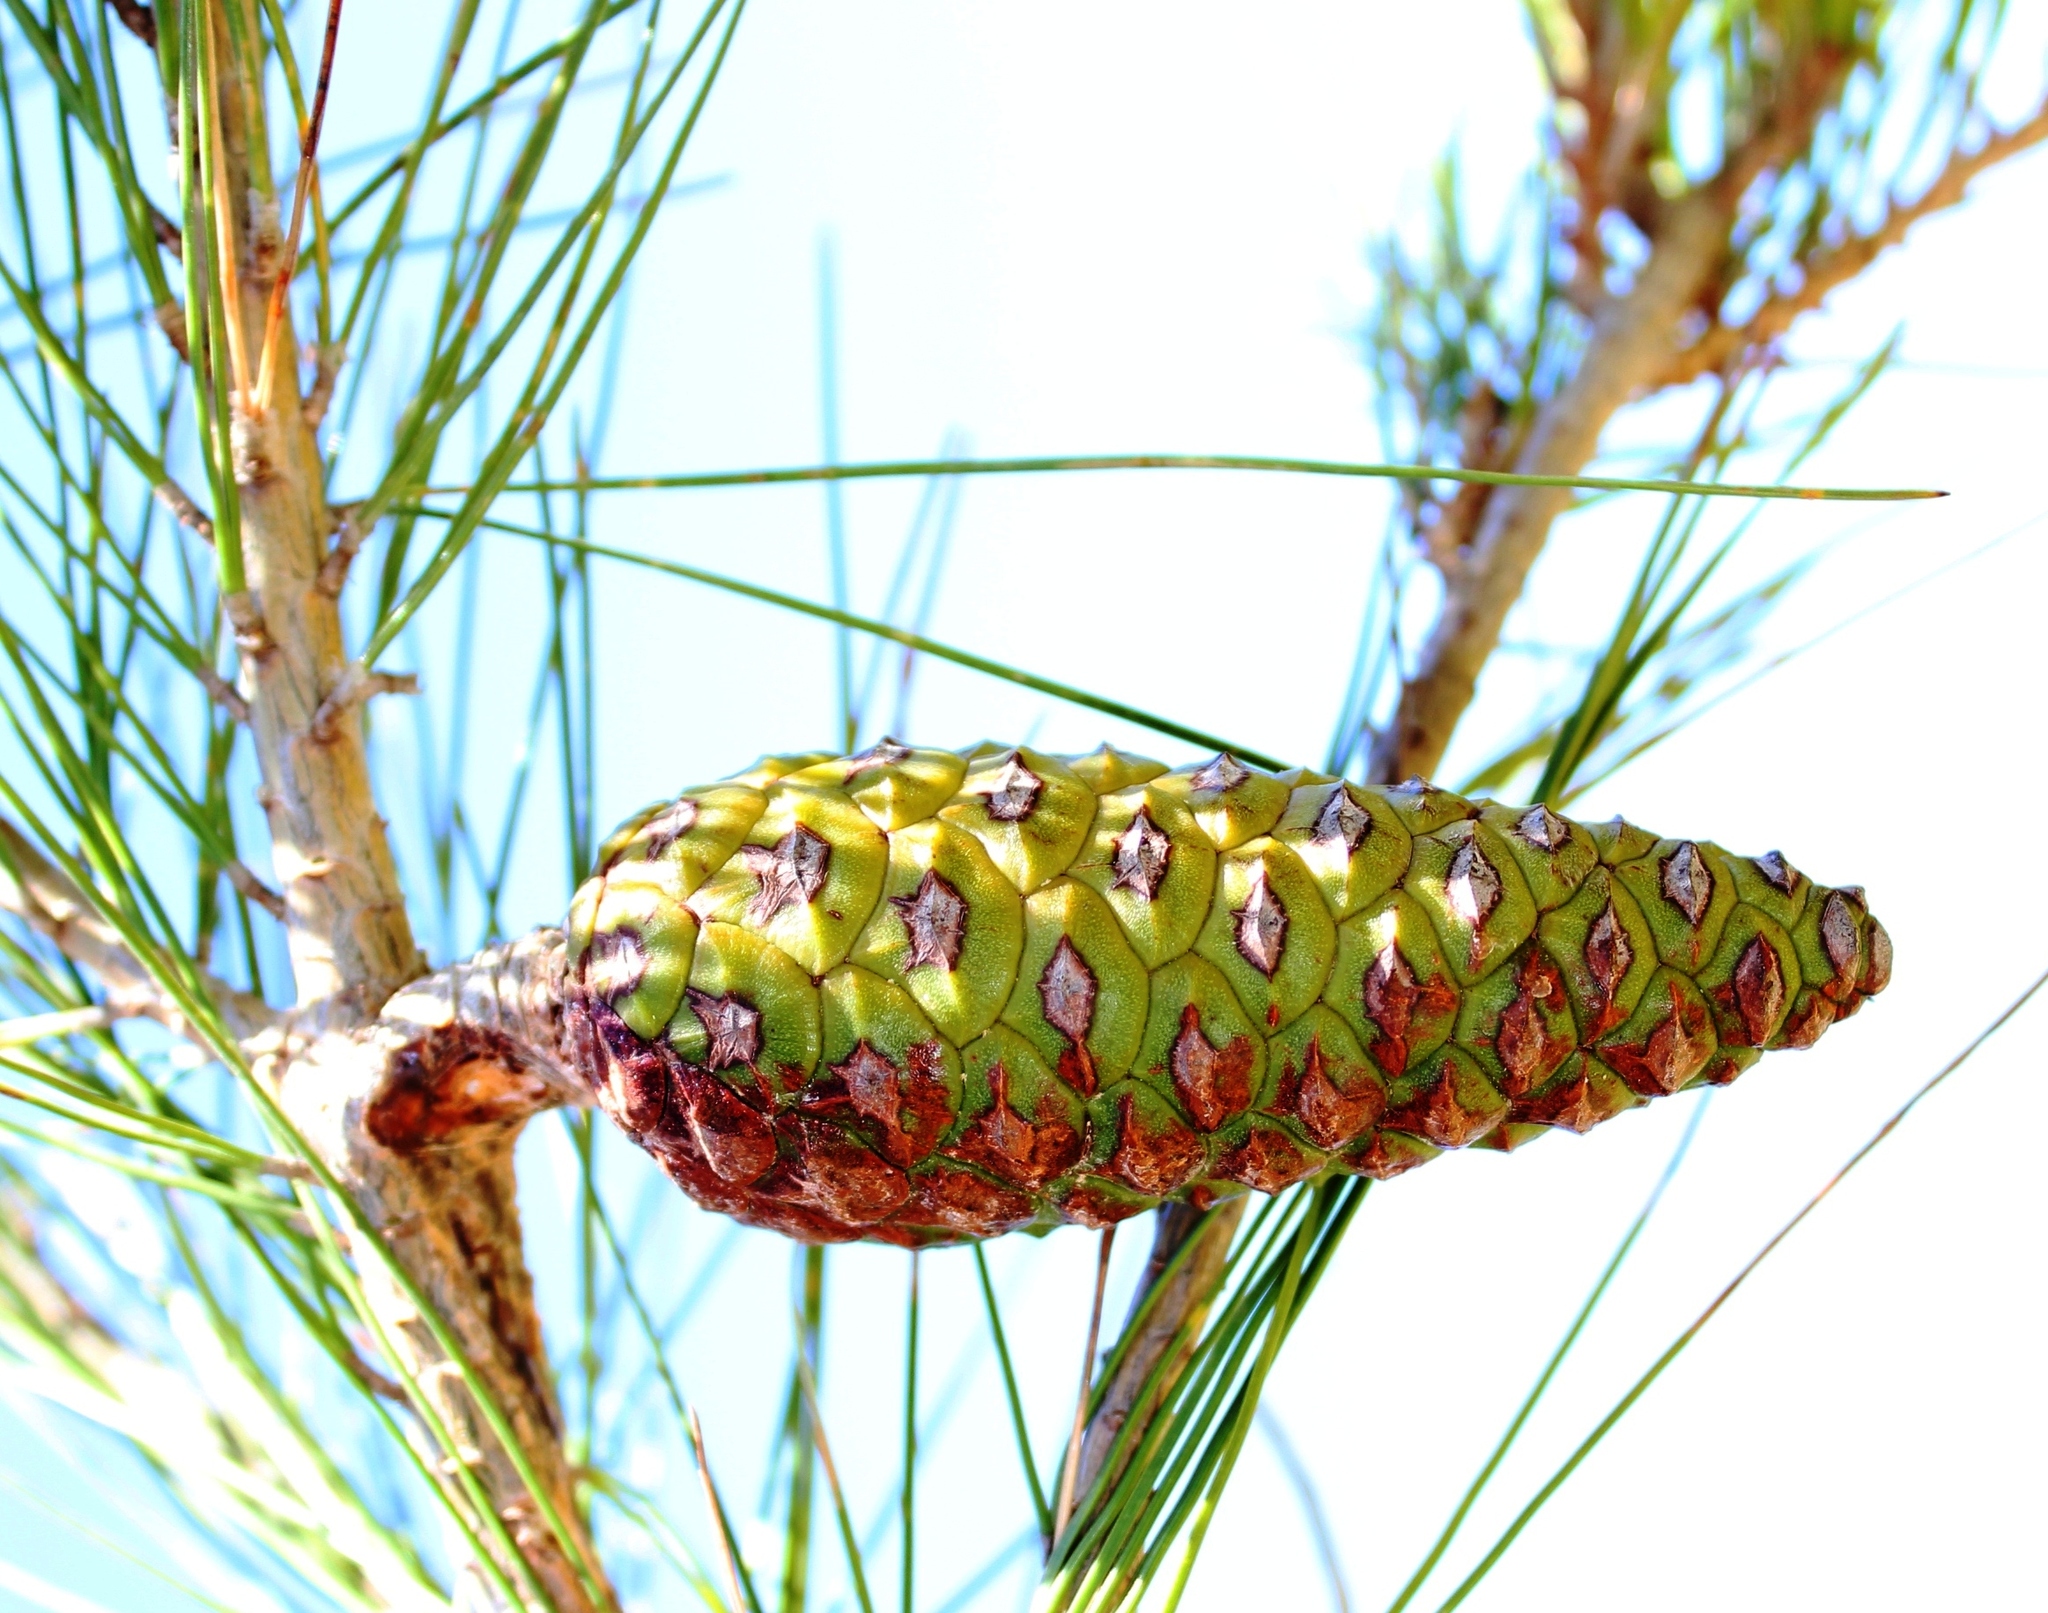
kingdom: Plantae
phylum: Tracheophyta
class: Pinopsida
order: Pinales
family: Pinaceae
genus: Pinus
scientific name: Pinus halepensis
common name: Aleppo pine
